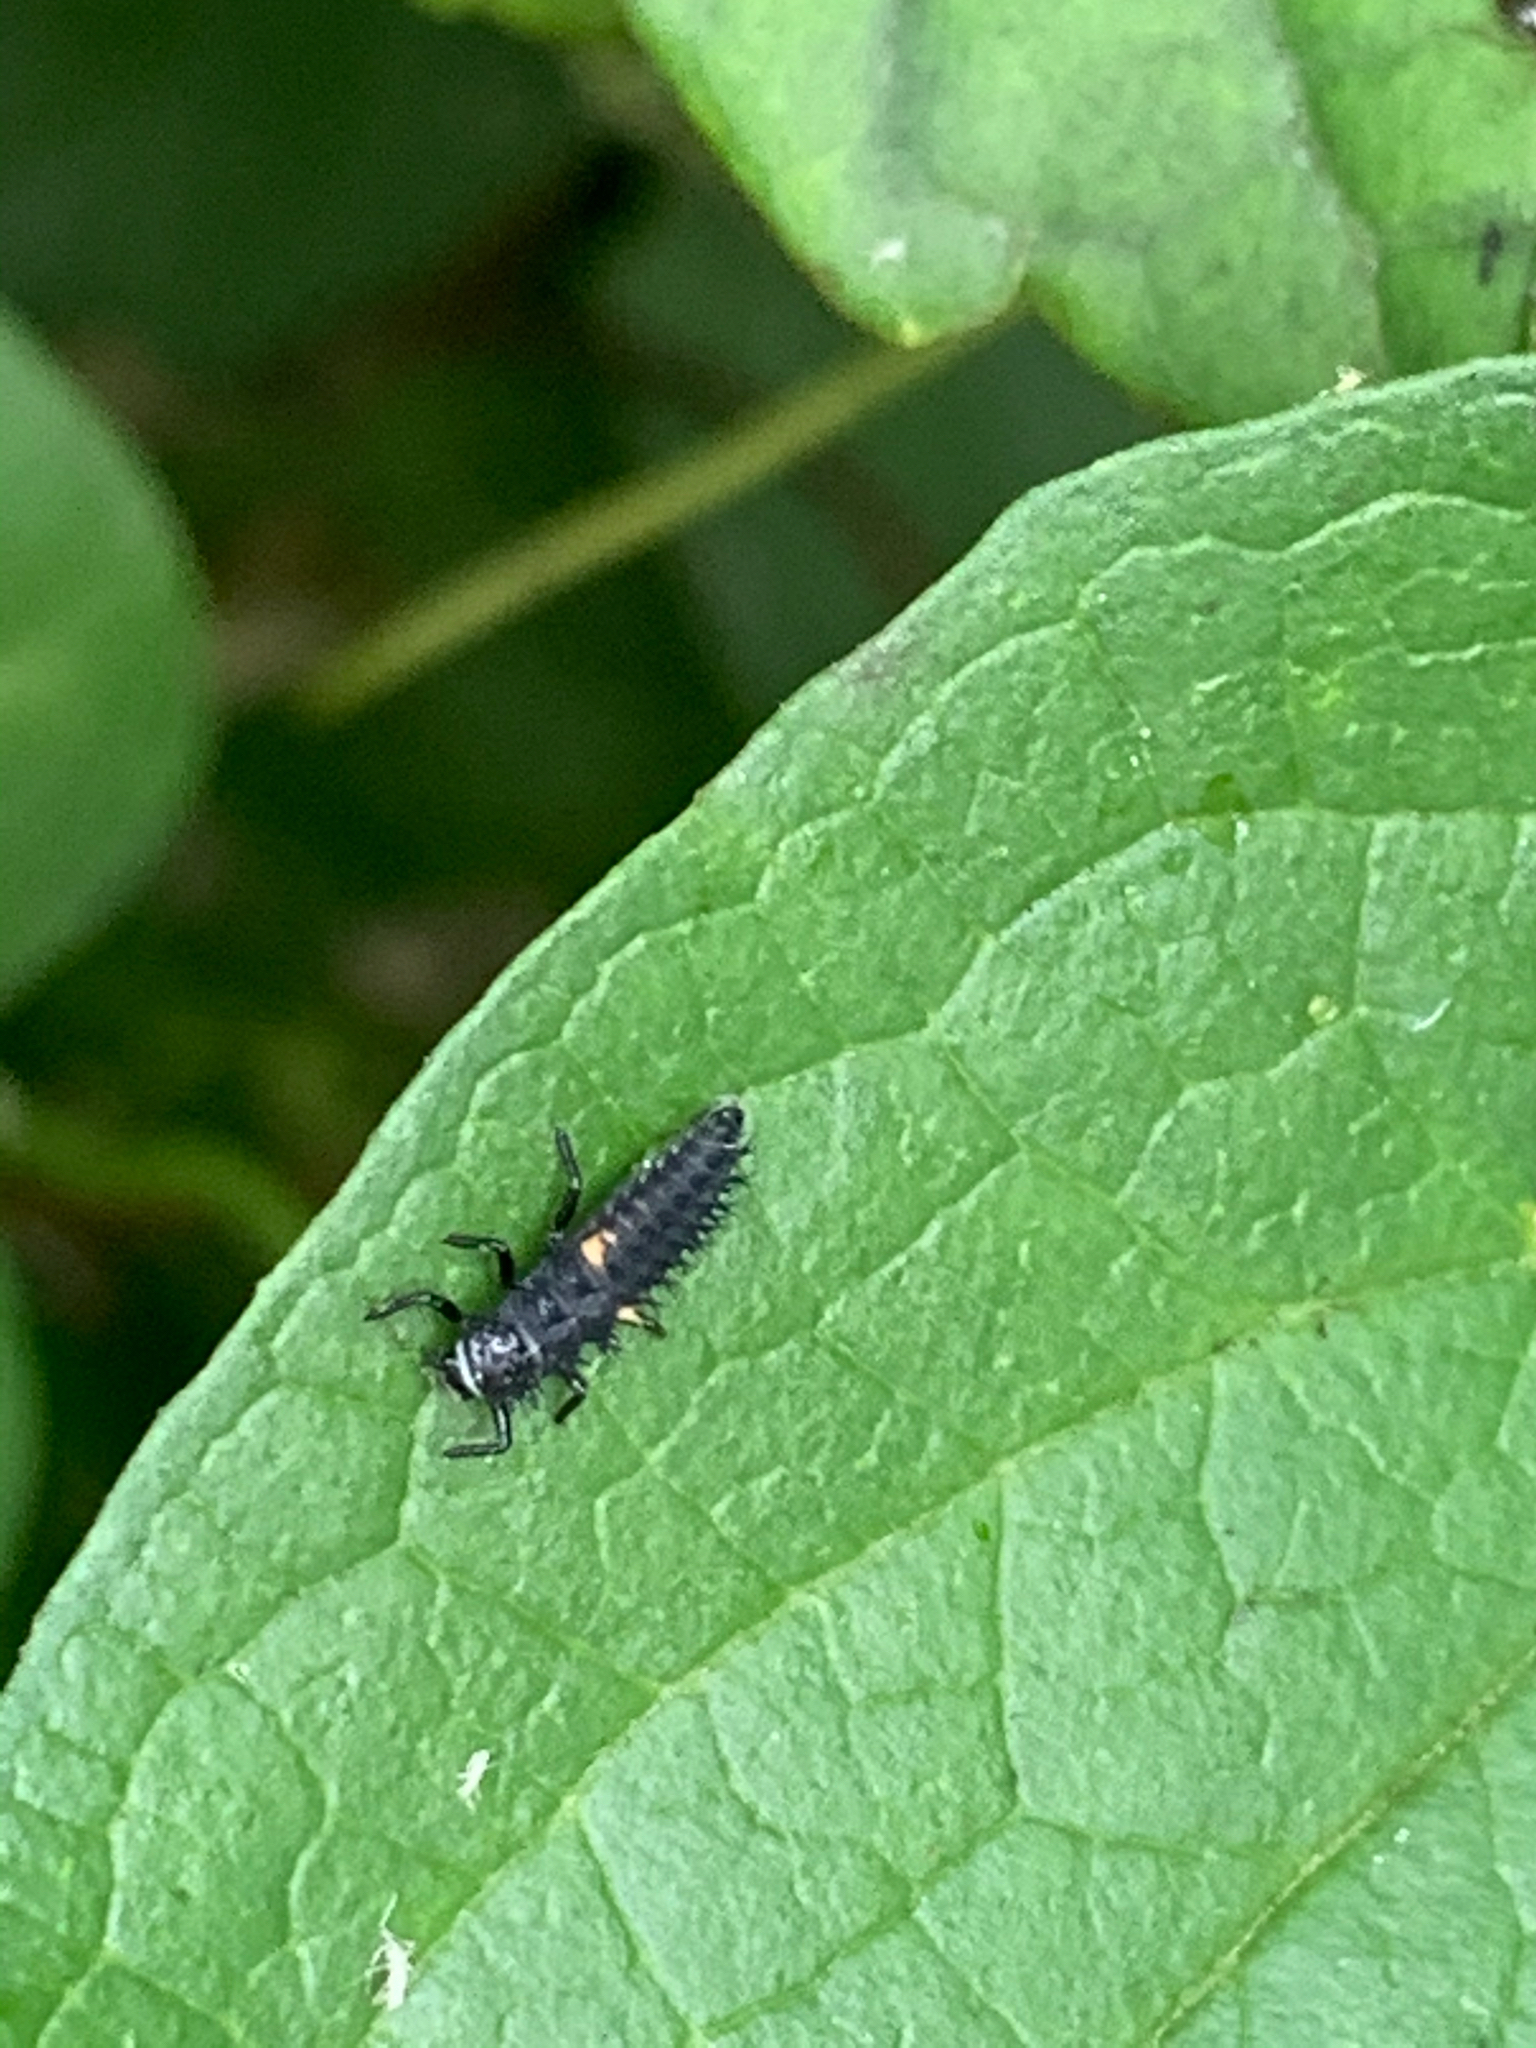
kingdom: Animalia
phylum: Arthropoda
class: Insecta
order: Coleoptera
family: Coccinellidae
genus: Harmonia
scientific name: Harmonia axyridis
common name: Harlequin ladybird
